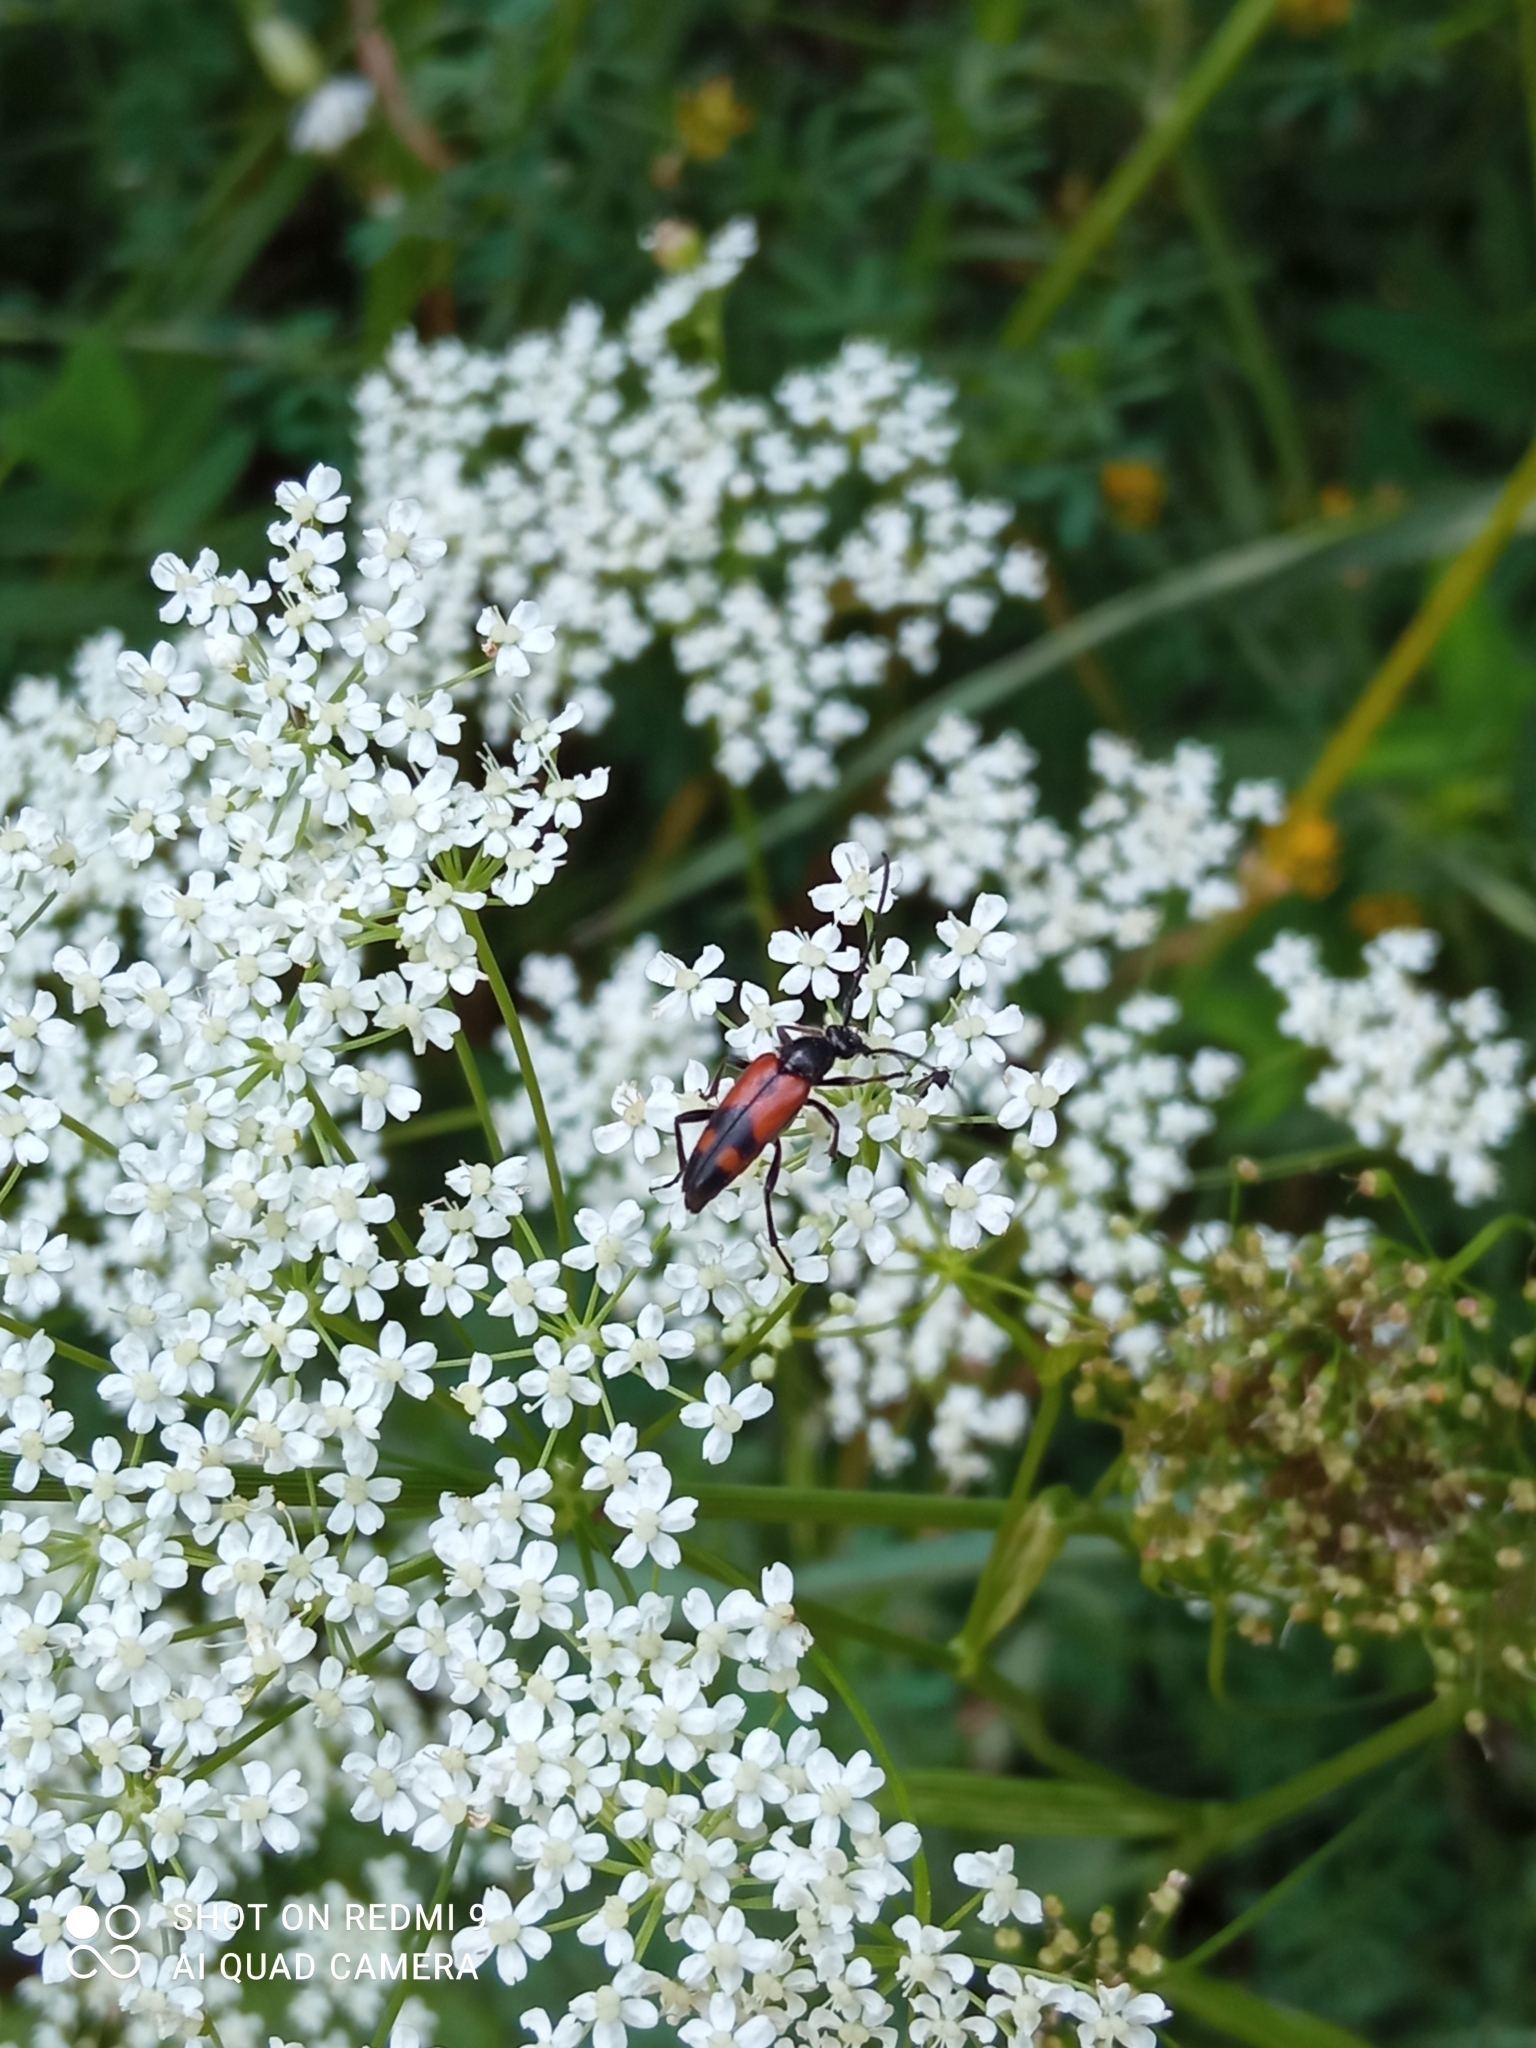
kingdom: Animalia
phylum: Arthropoda
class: Insecta
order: Coleoptera
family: Cerambycidae
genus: Stenurella
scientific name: Stenurella bifasciata
